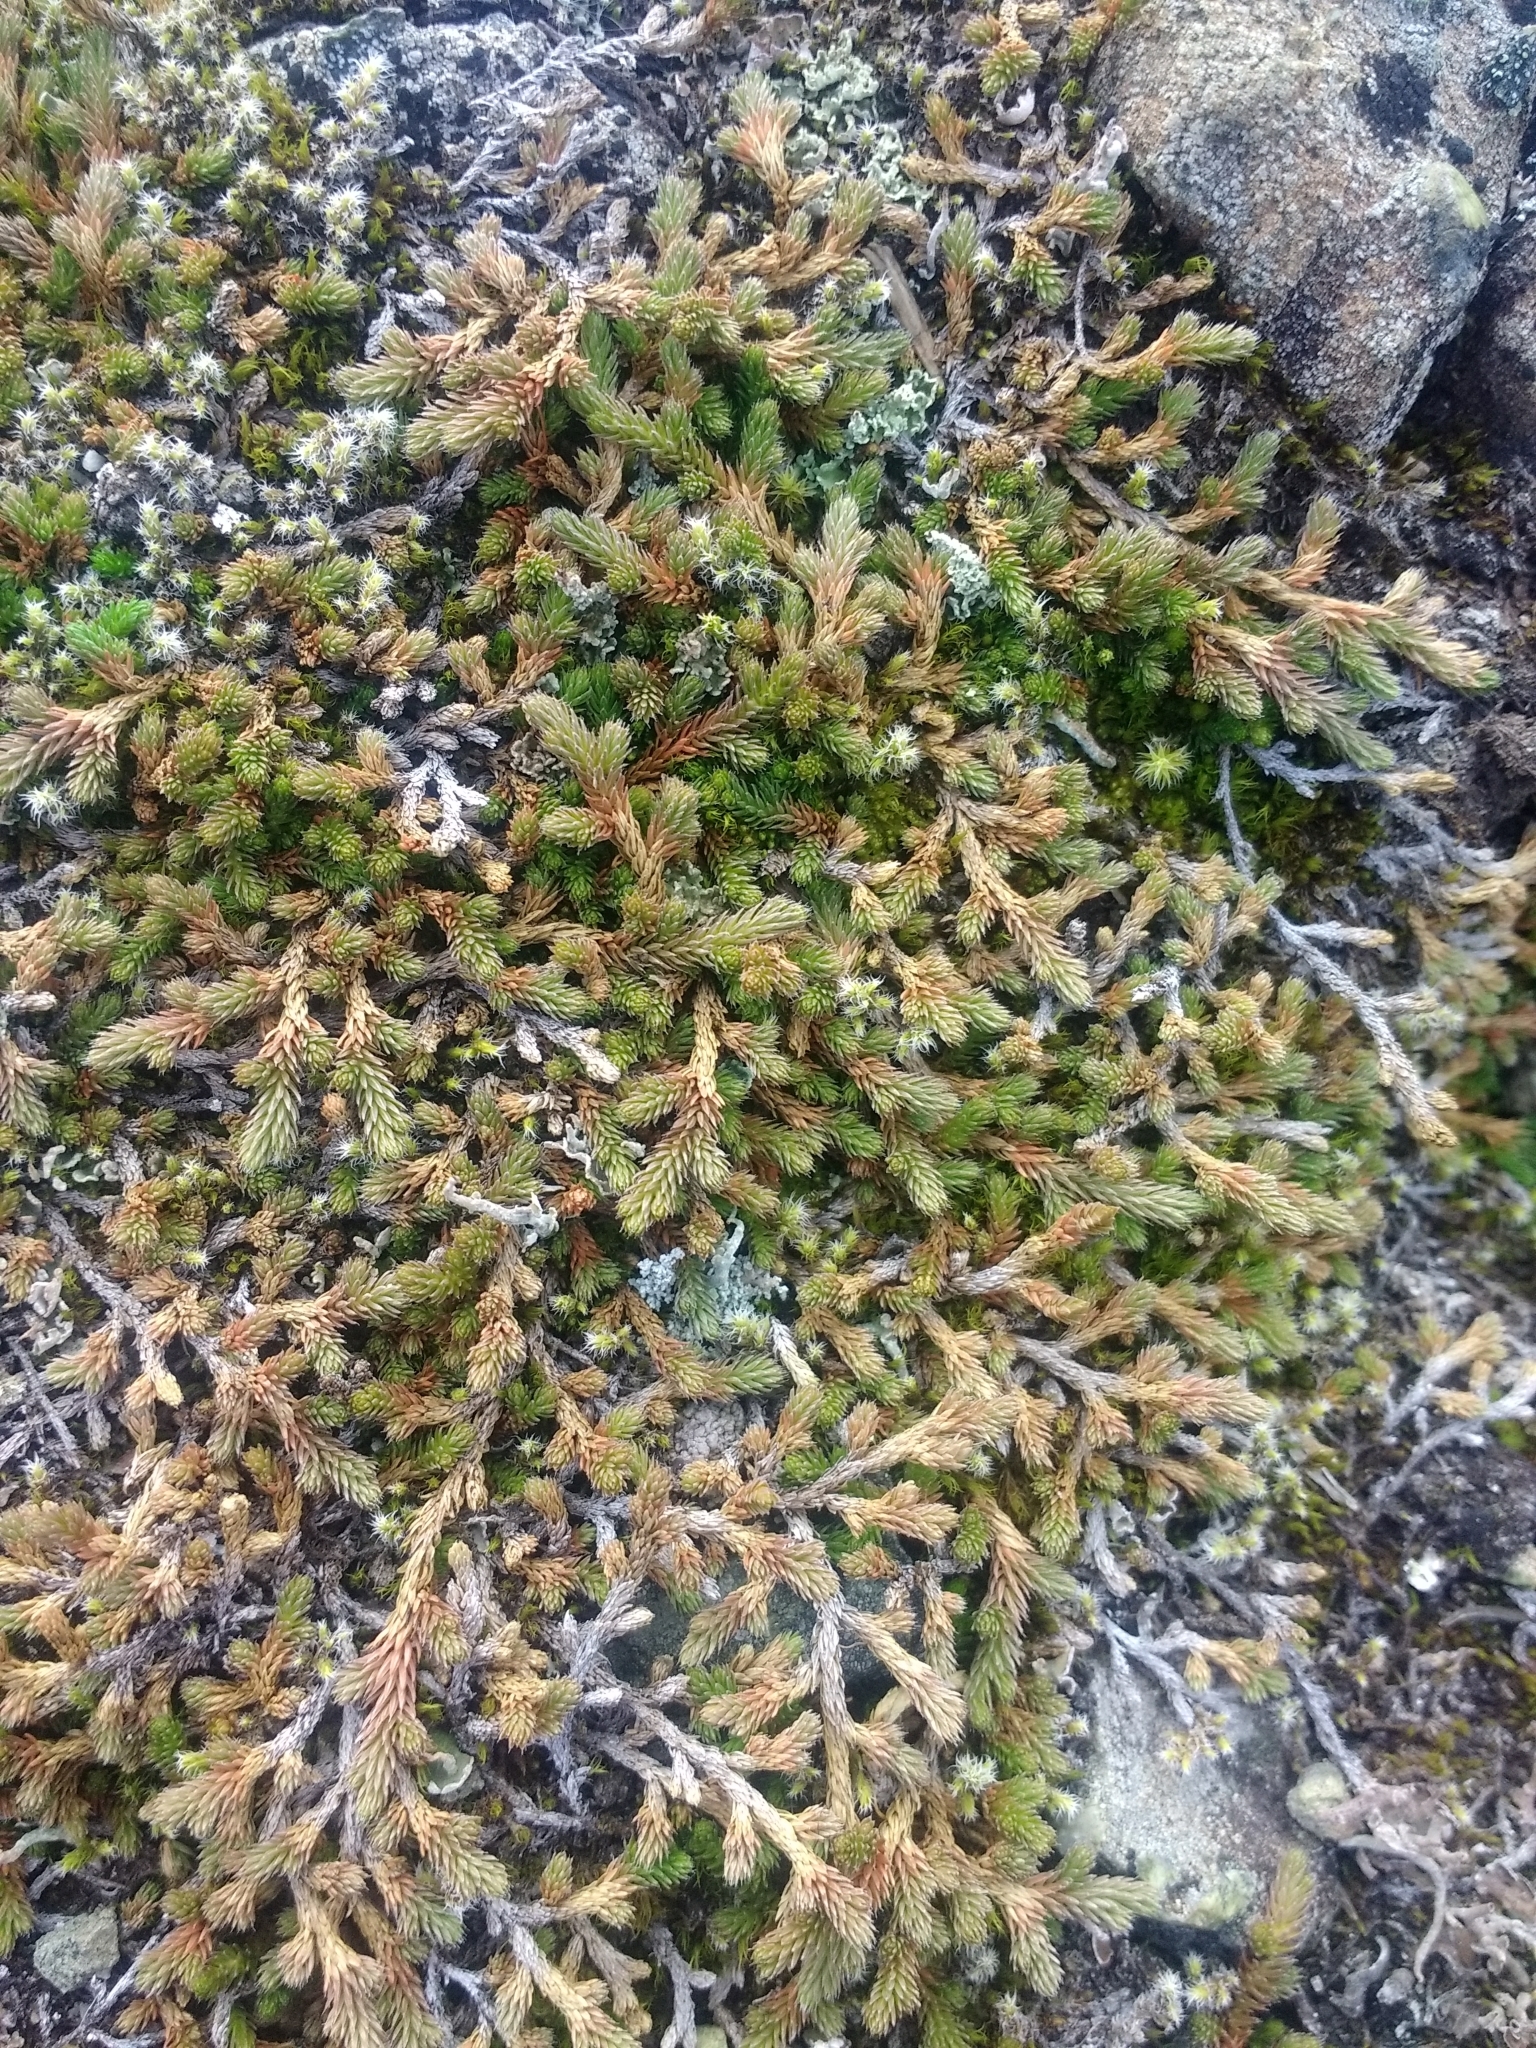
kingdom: Plantae
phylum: Tracheophyta
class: Lycopodiopsida
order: Selaginellales
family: Selaginellaceae
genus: Selaginella
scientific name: Selaginella wallacei
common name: Wallace's selaginella
